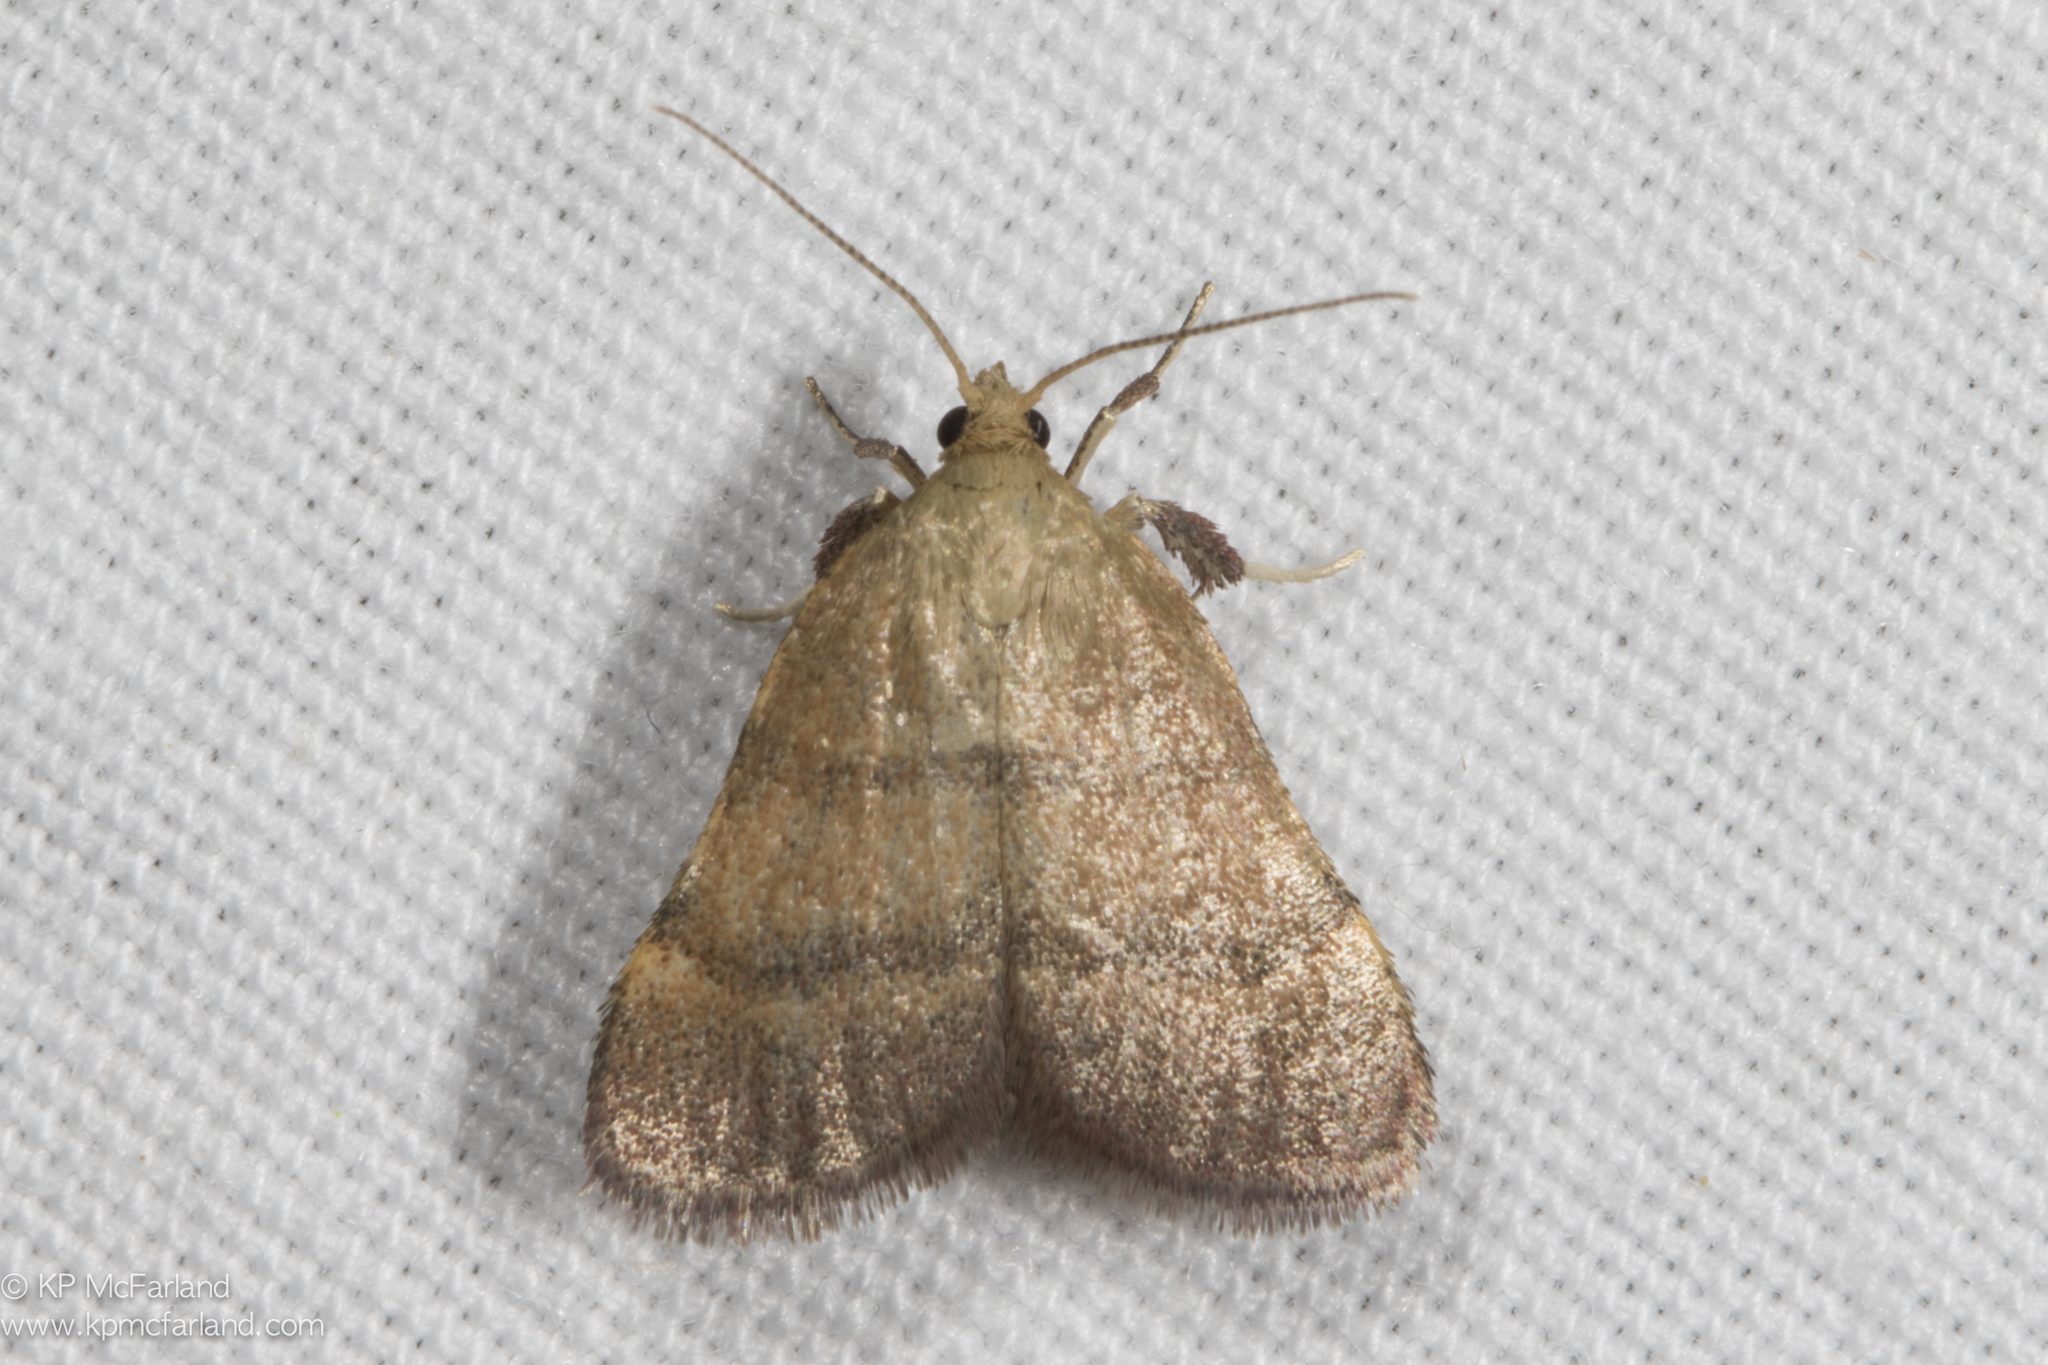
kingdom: Animalia
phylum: Arthropoda
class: Insecta
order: Lepidoptera
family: Pyralidae
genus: Condylolomia
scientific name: Condylolomia participialis
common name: Drab condylolomia moth
